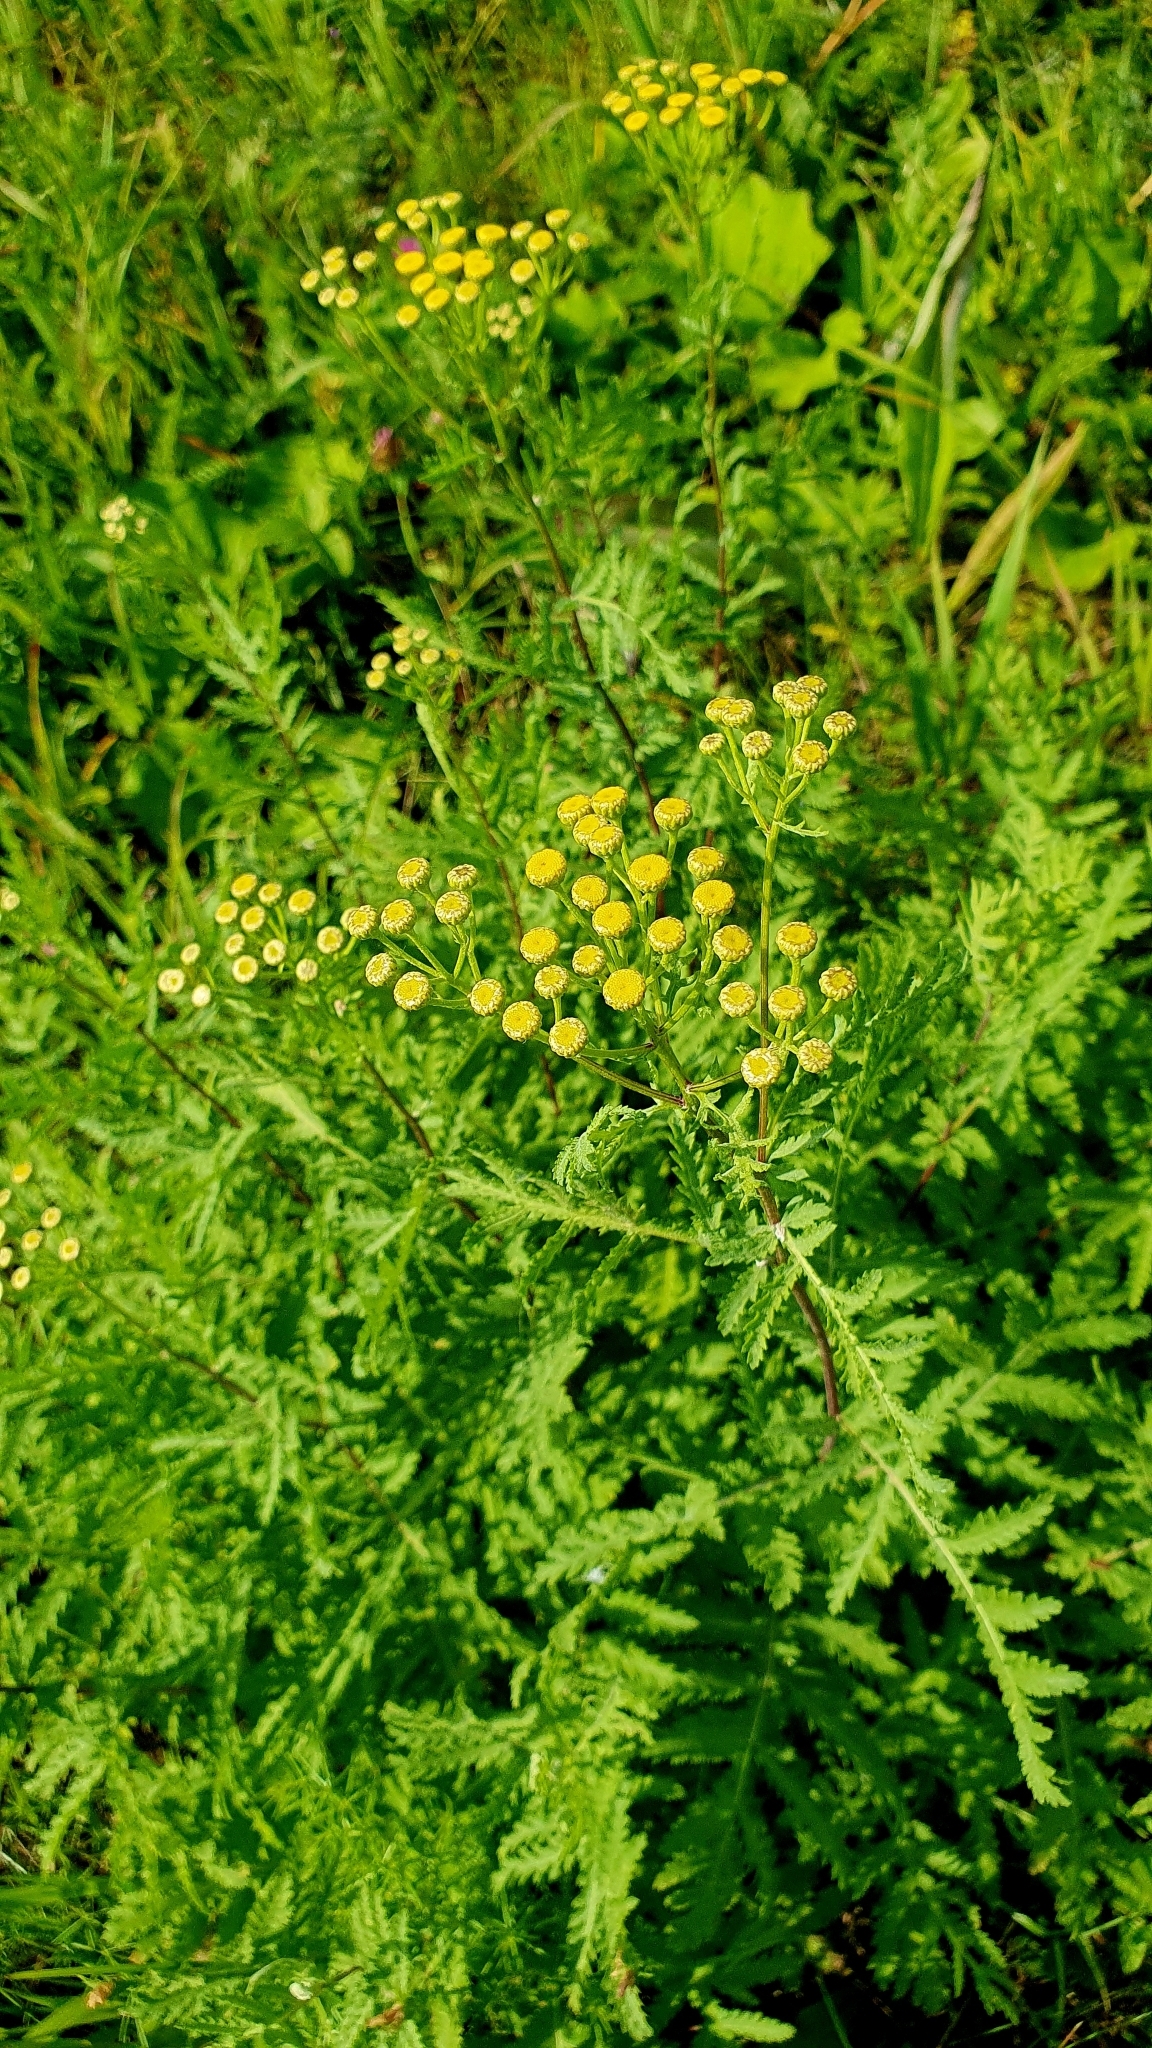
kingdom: Plantae
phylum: Tracheophyta
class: Magnoliopsida
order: Asterales
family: Asteraceae
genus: Tanacetum
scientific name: Tanacetum vulgare
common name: Common tansy
